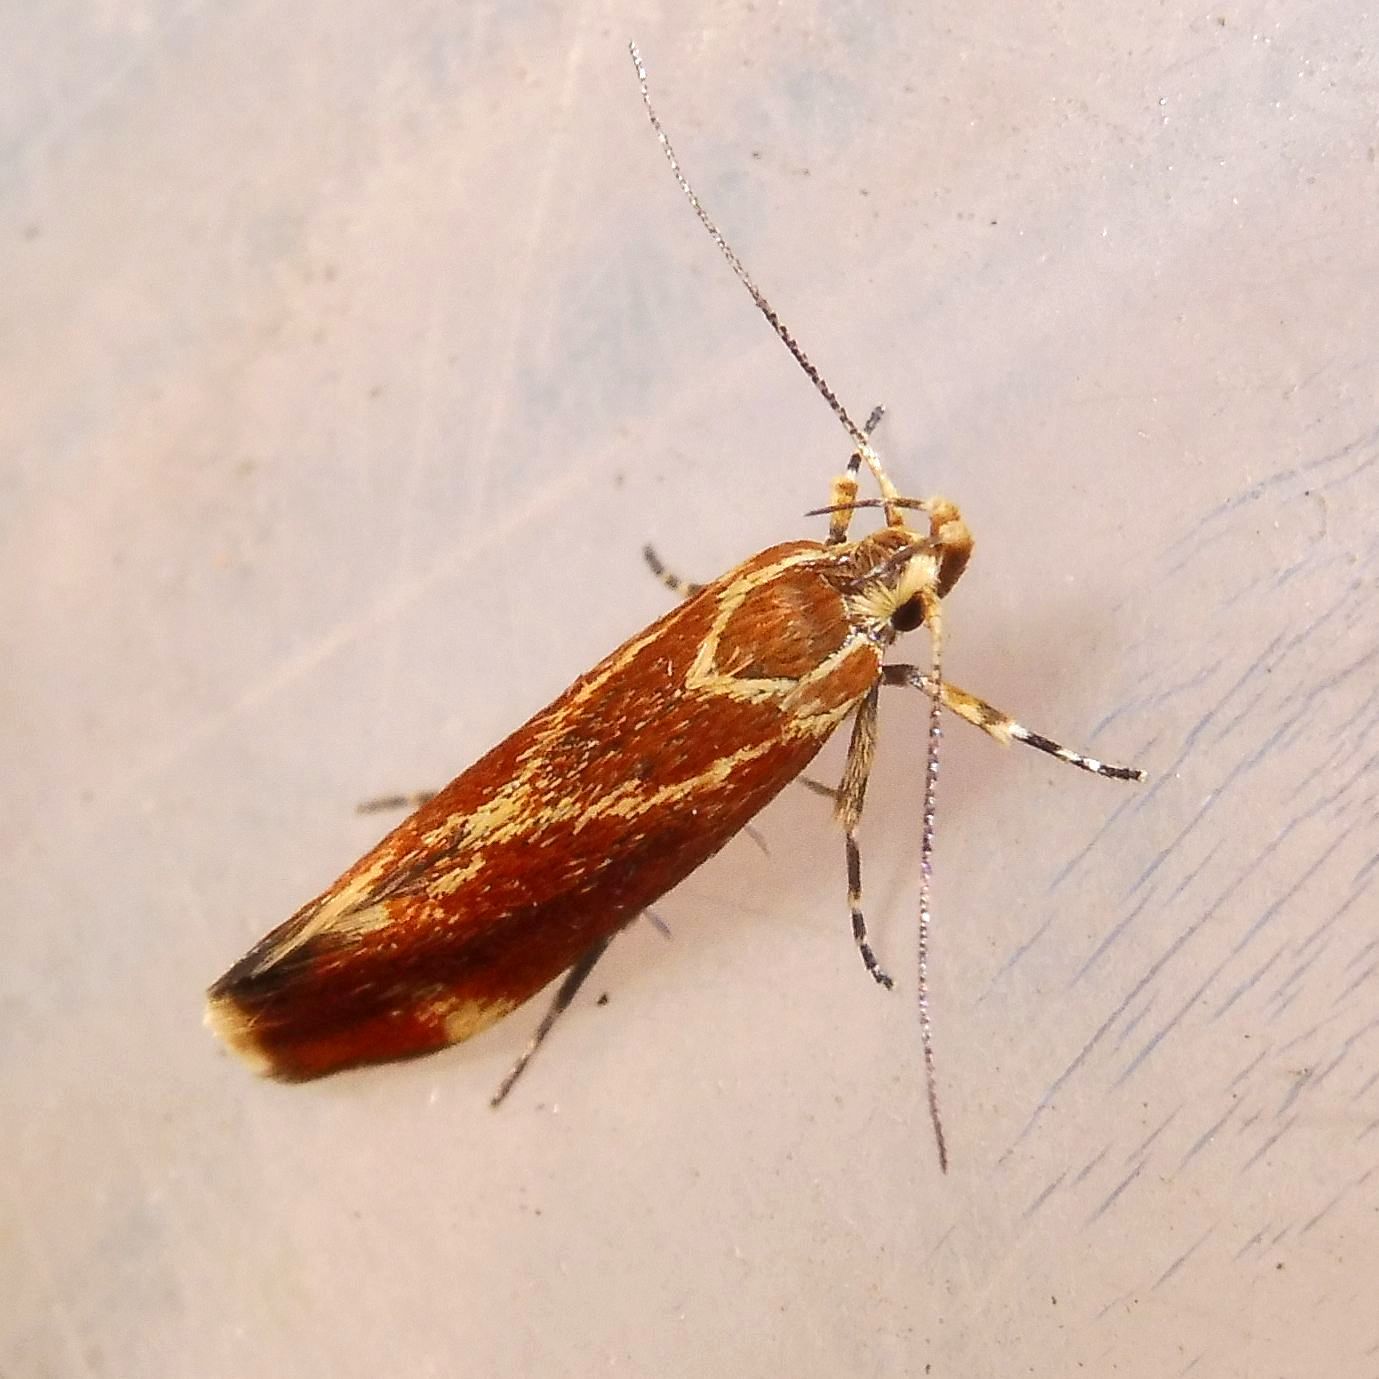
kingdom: Animalia
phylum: Arthropoda
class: Insecta
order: Lepidoptera
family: Oecophoridae
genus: Borkhausenia
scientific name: Borkhausenia italica
